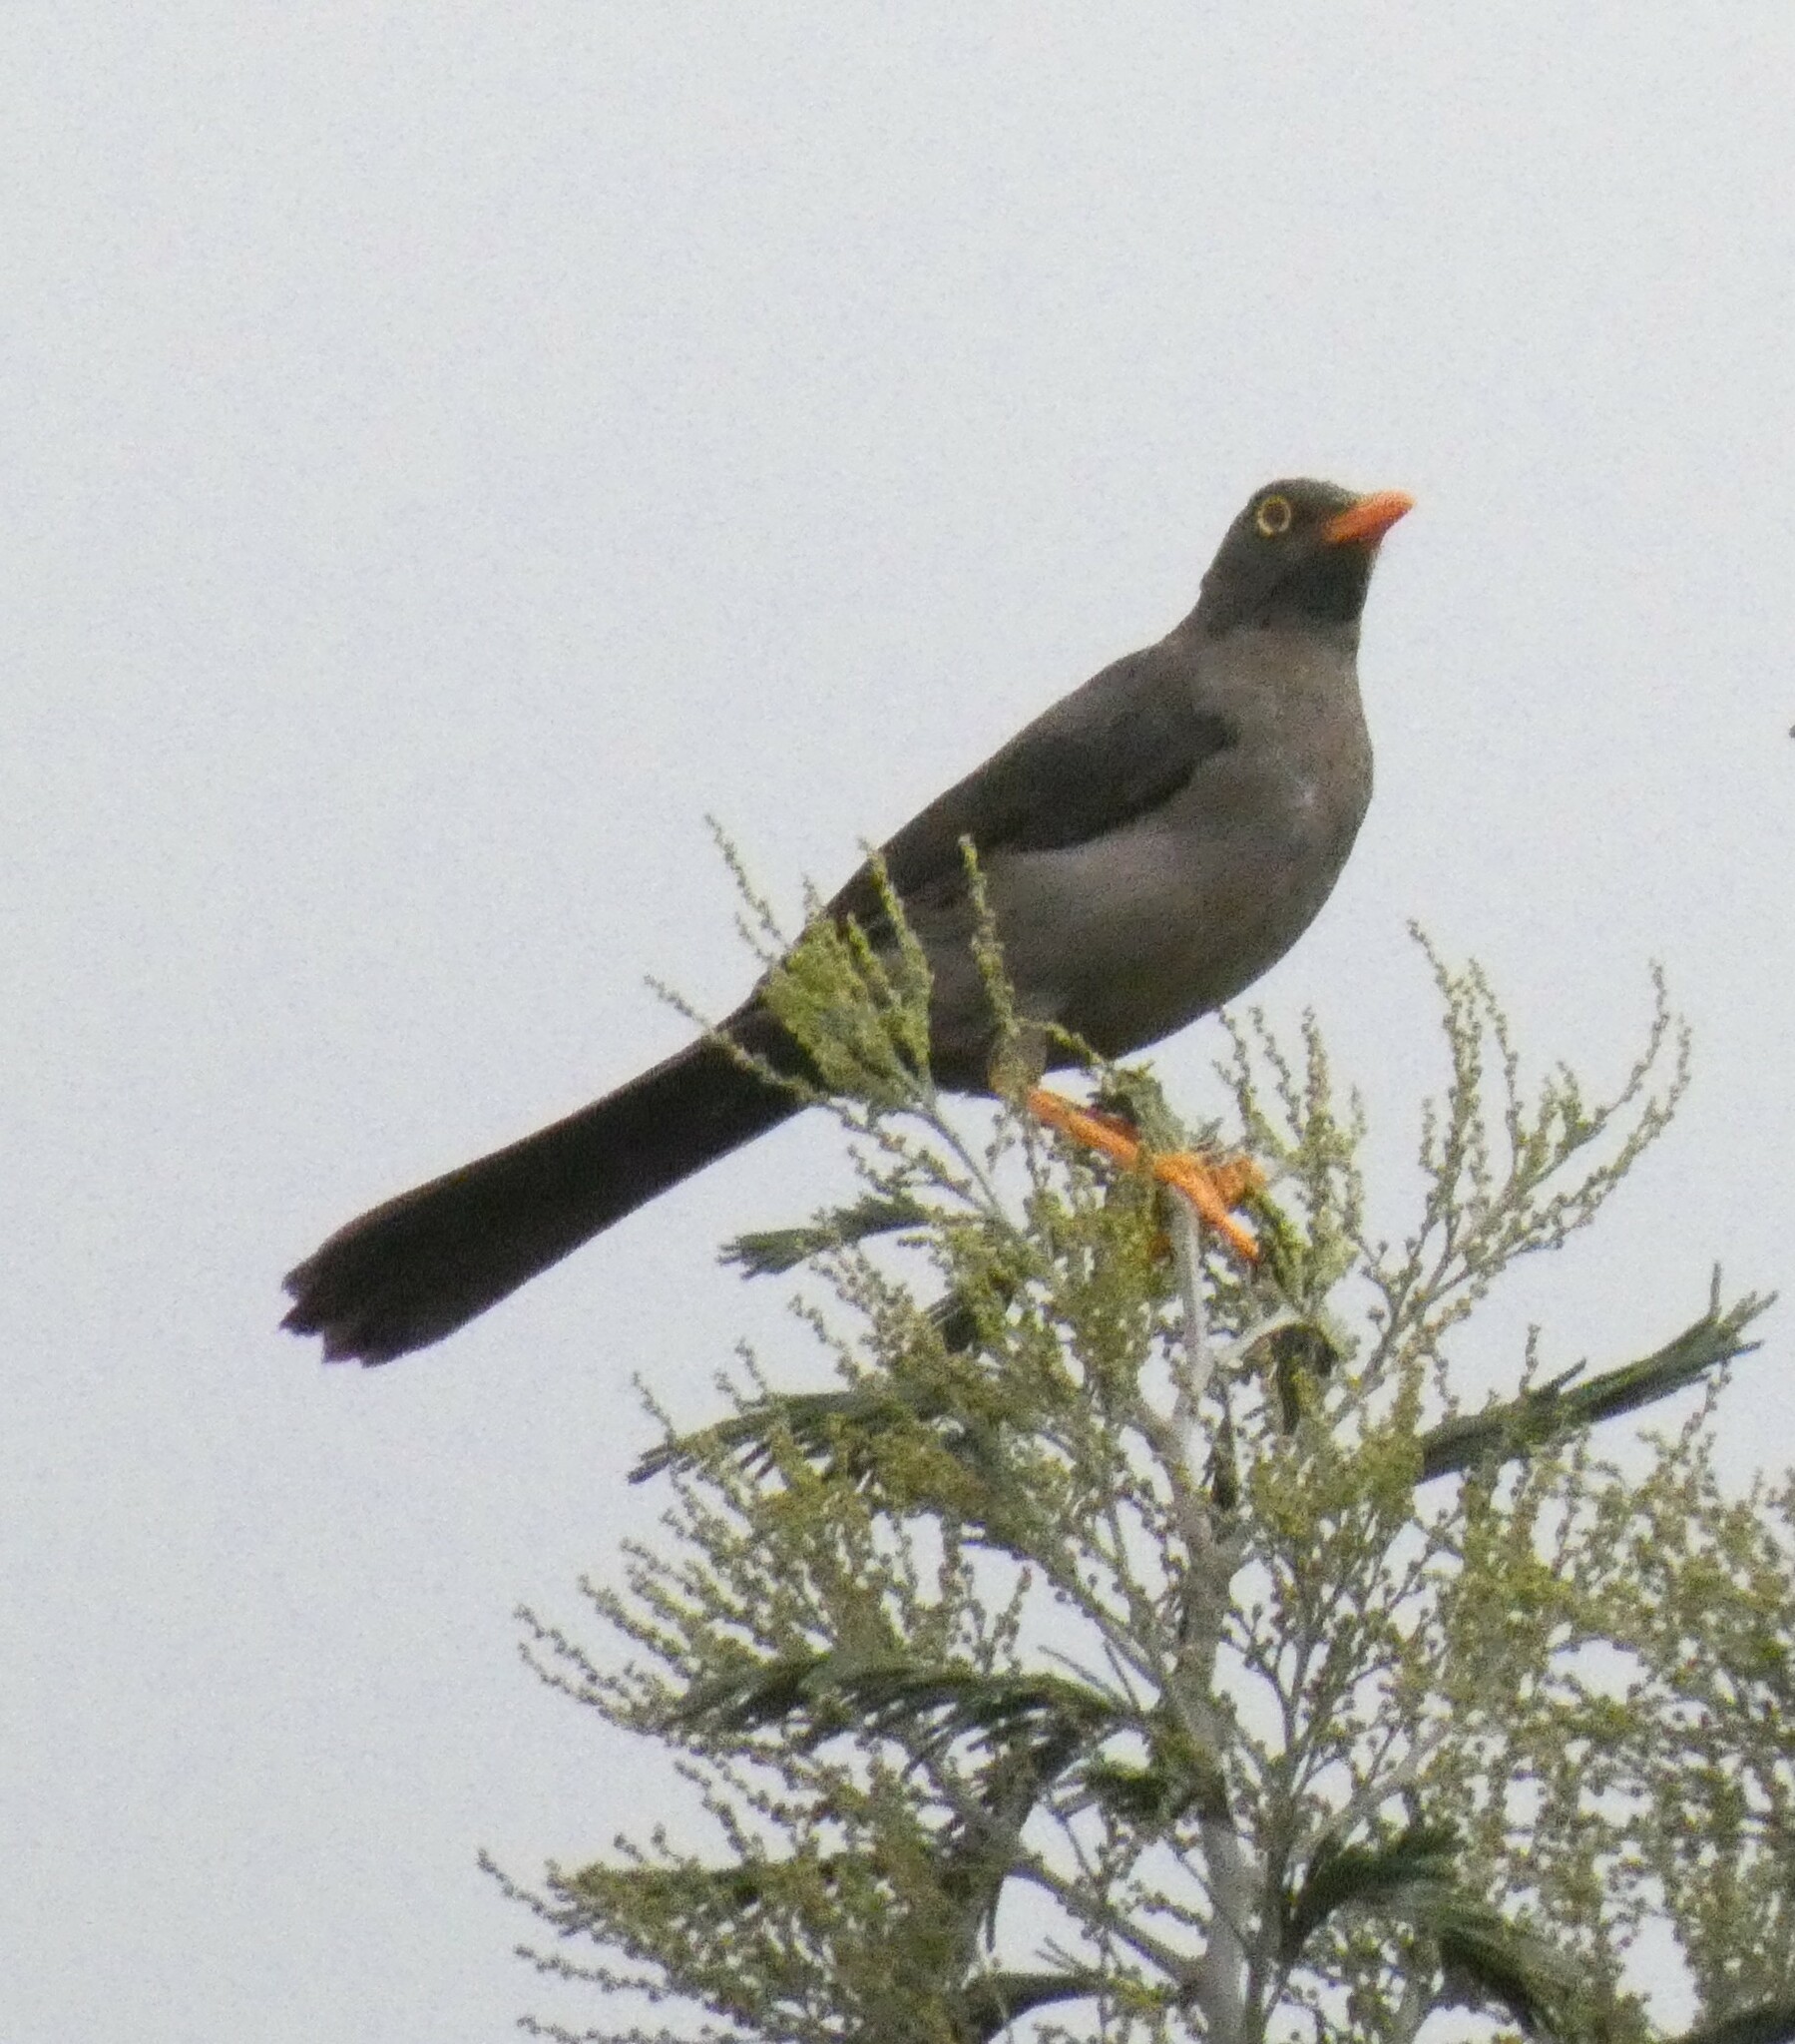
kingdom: Animalia
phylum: Chordata
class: Aves
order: Passeriformes
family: Turdidae
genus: Turdus
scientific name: Turdus fuscater
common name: Great thrush
